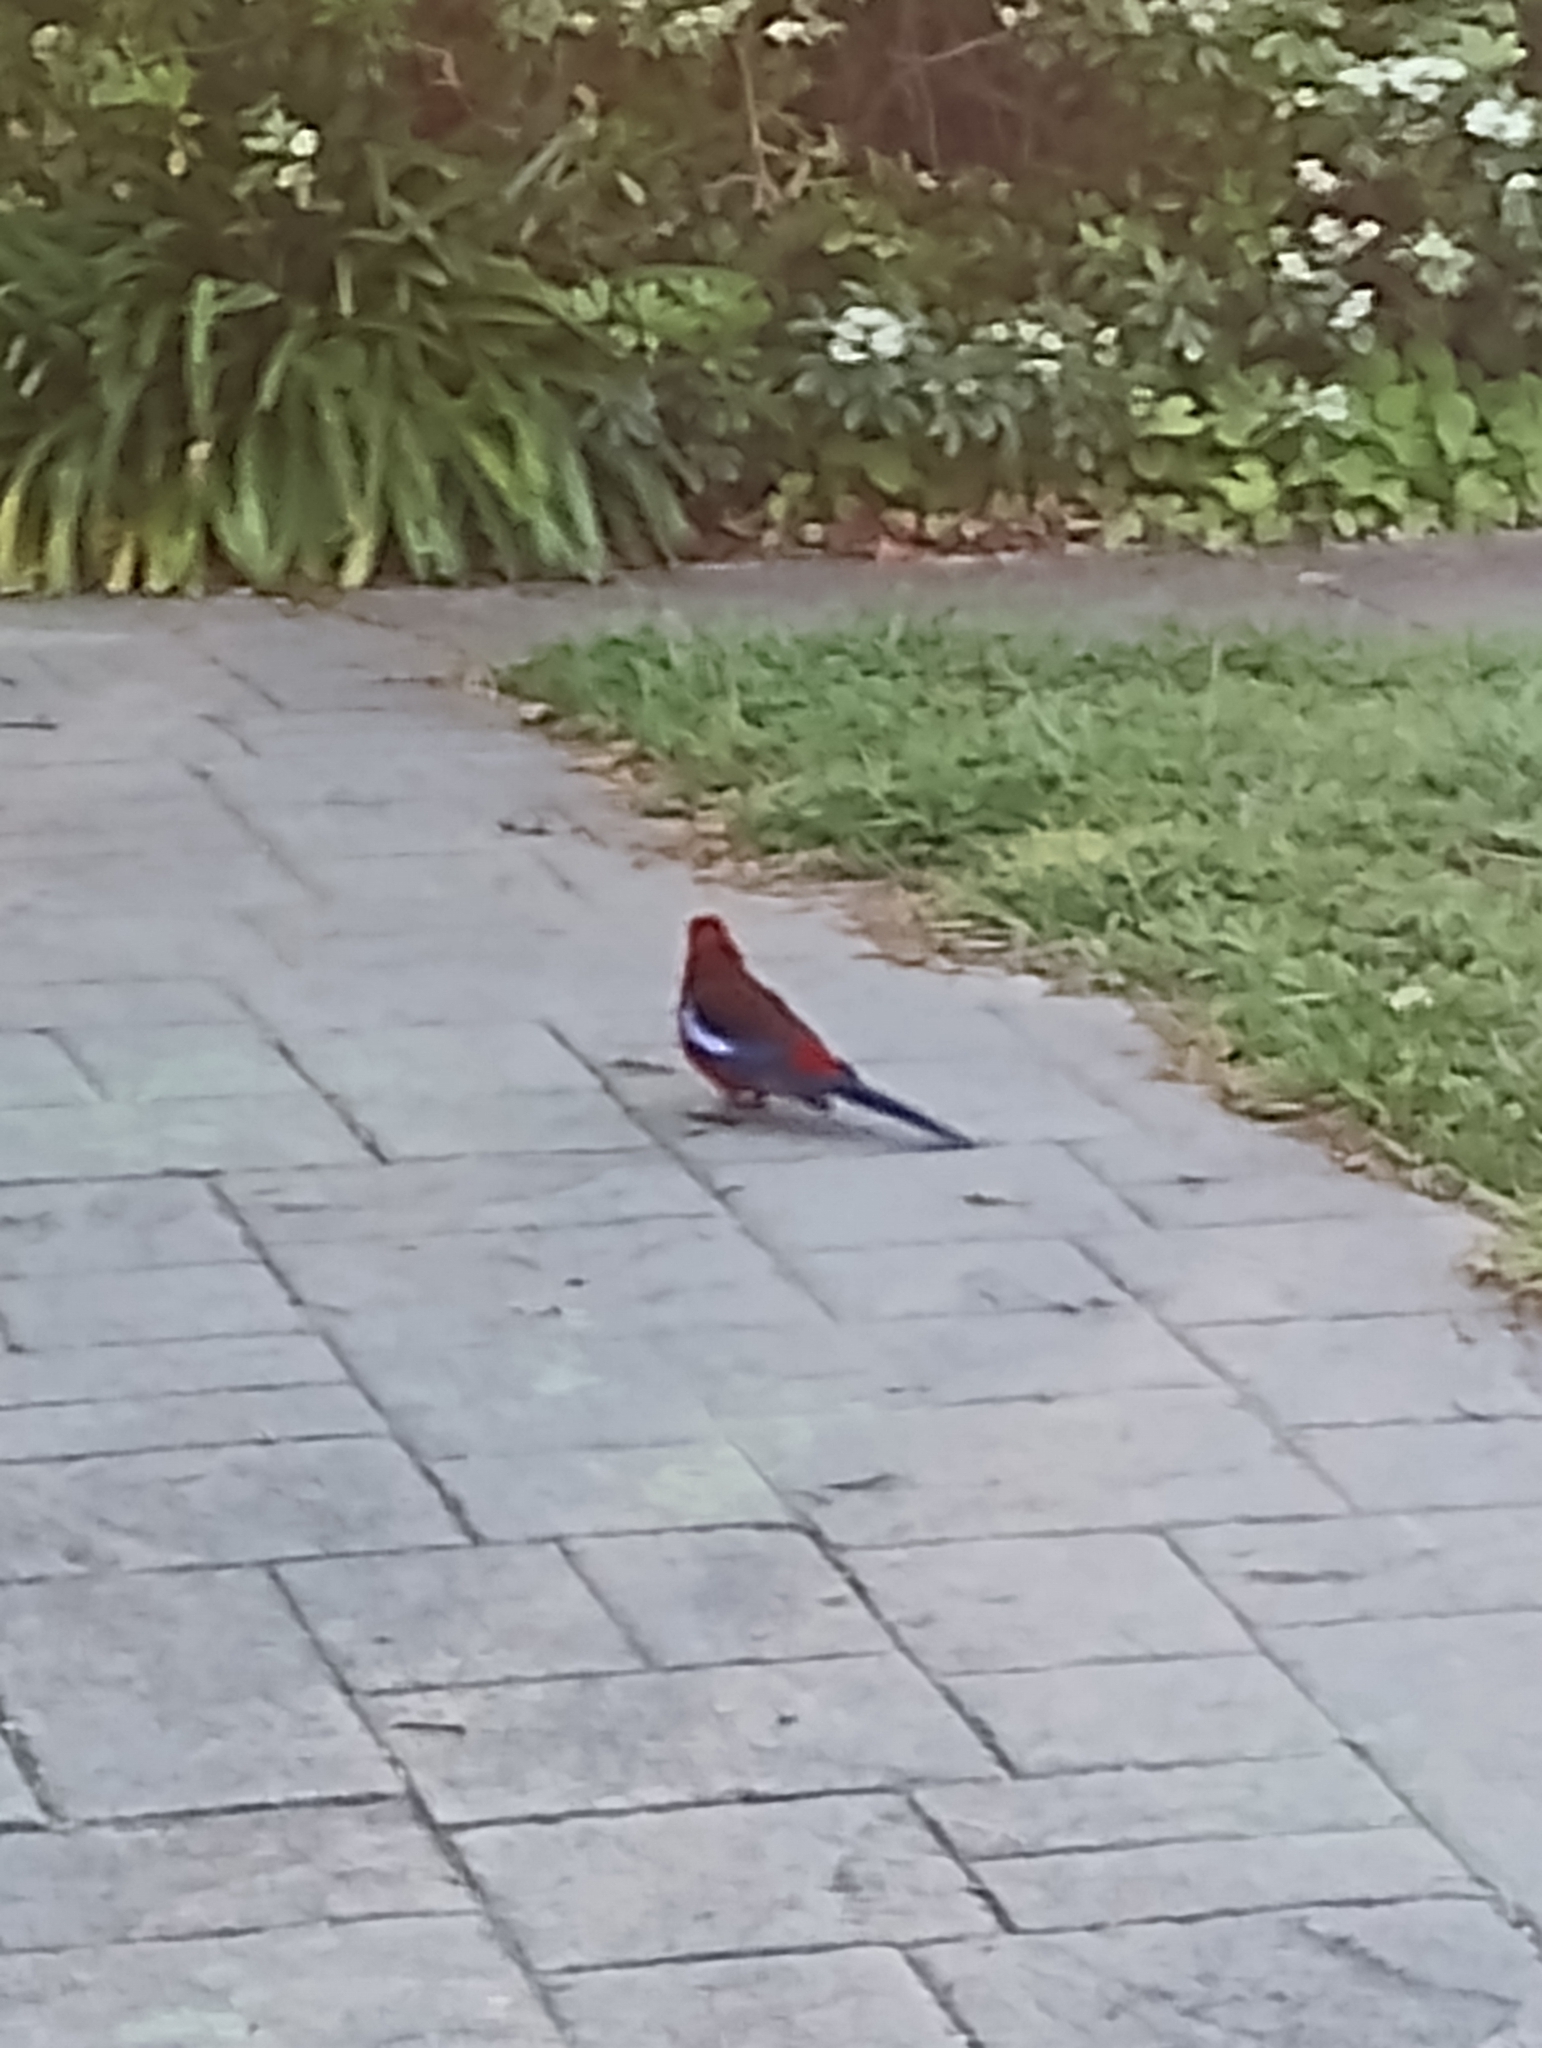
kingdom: Animalia
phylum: Chordata
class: Aves
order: Psittaciformes
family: Psittacidae
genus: Platycercus
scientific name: Platycercus elegans
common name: Crimson rosella
